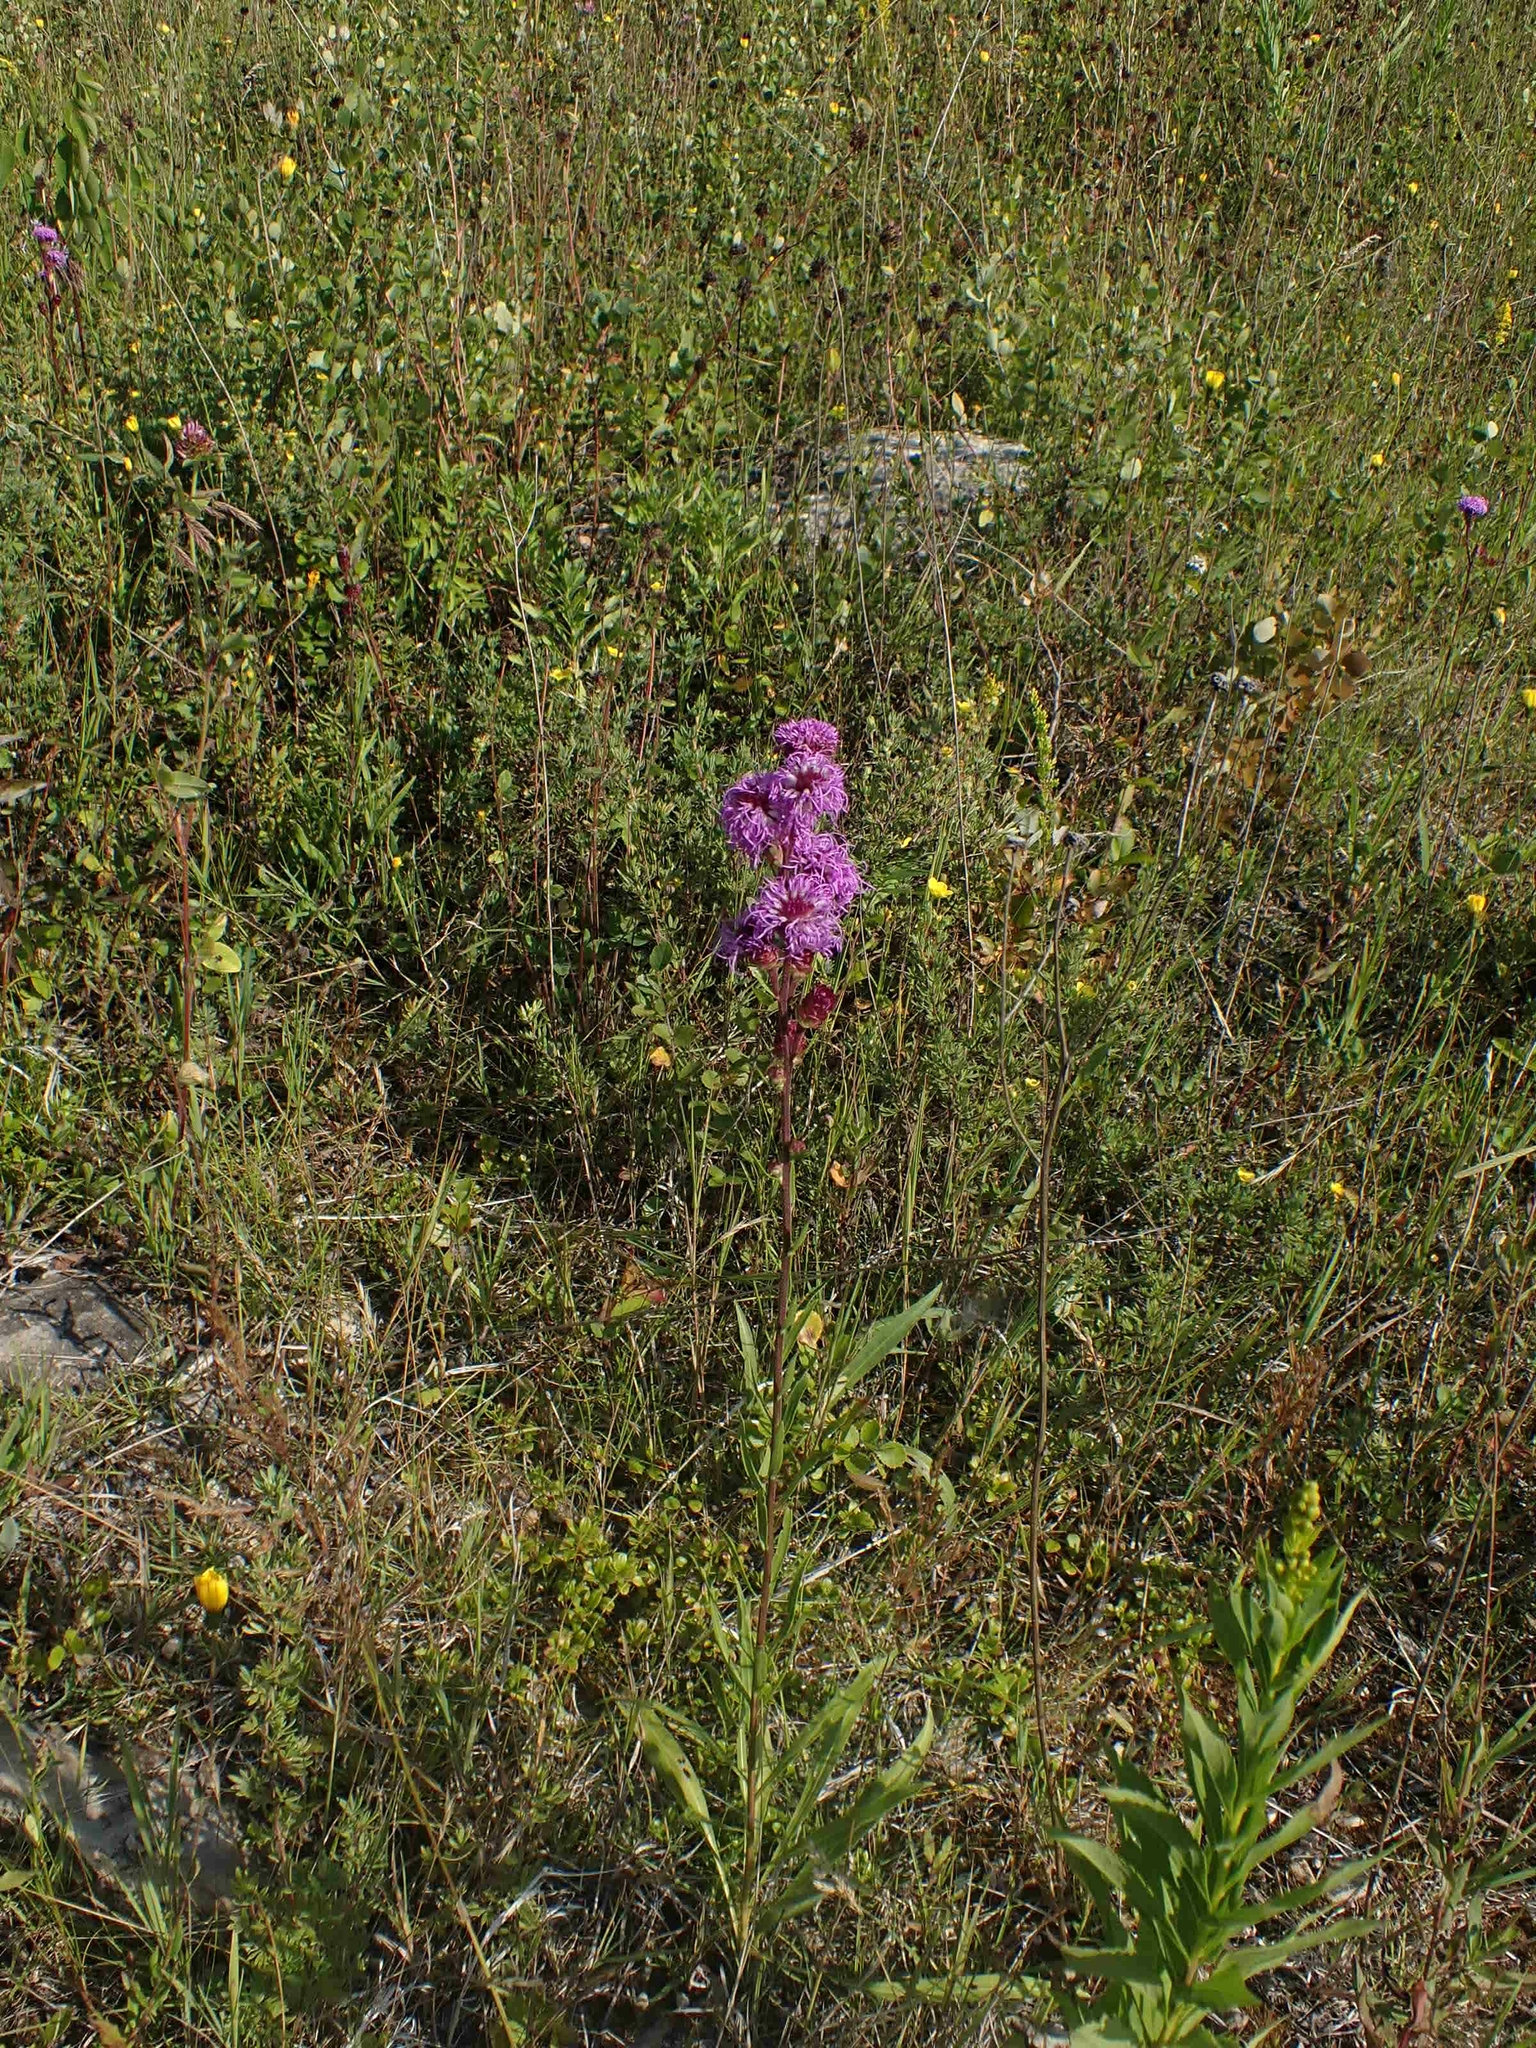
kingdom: Plantae
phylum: Tracheophyta
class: Magnoliopsida
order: Asterales
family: Asteraceae
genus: Liatris
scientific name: Liatris ligulistylis
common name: Northern plains gayfeather
